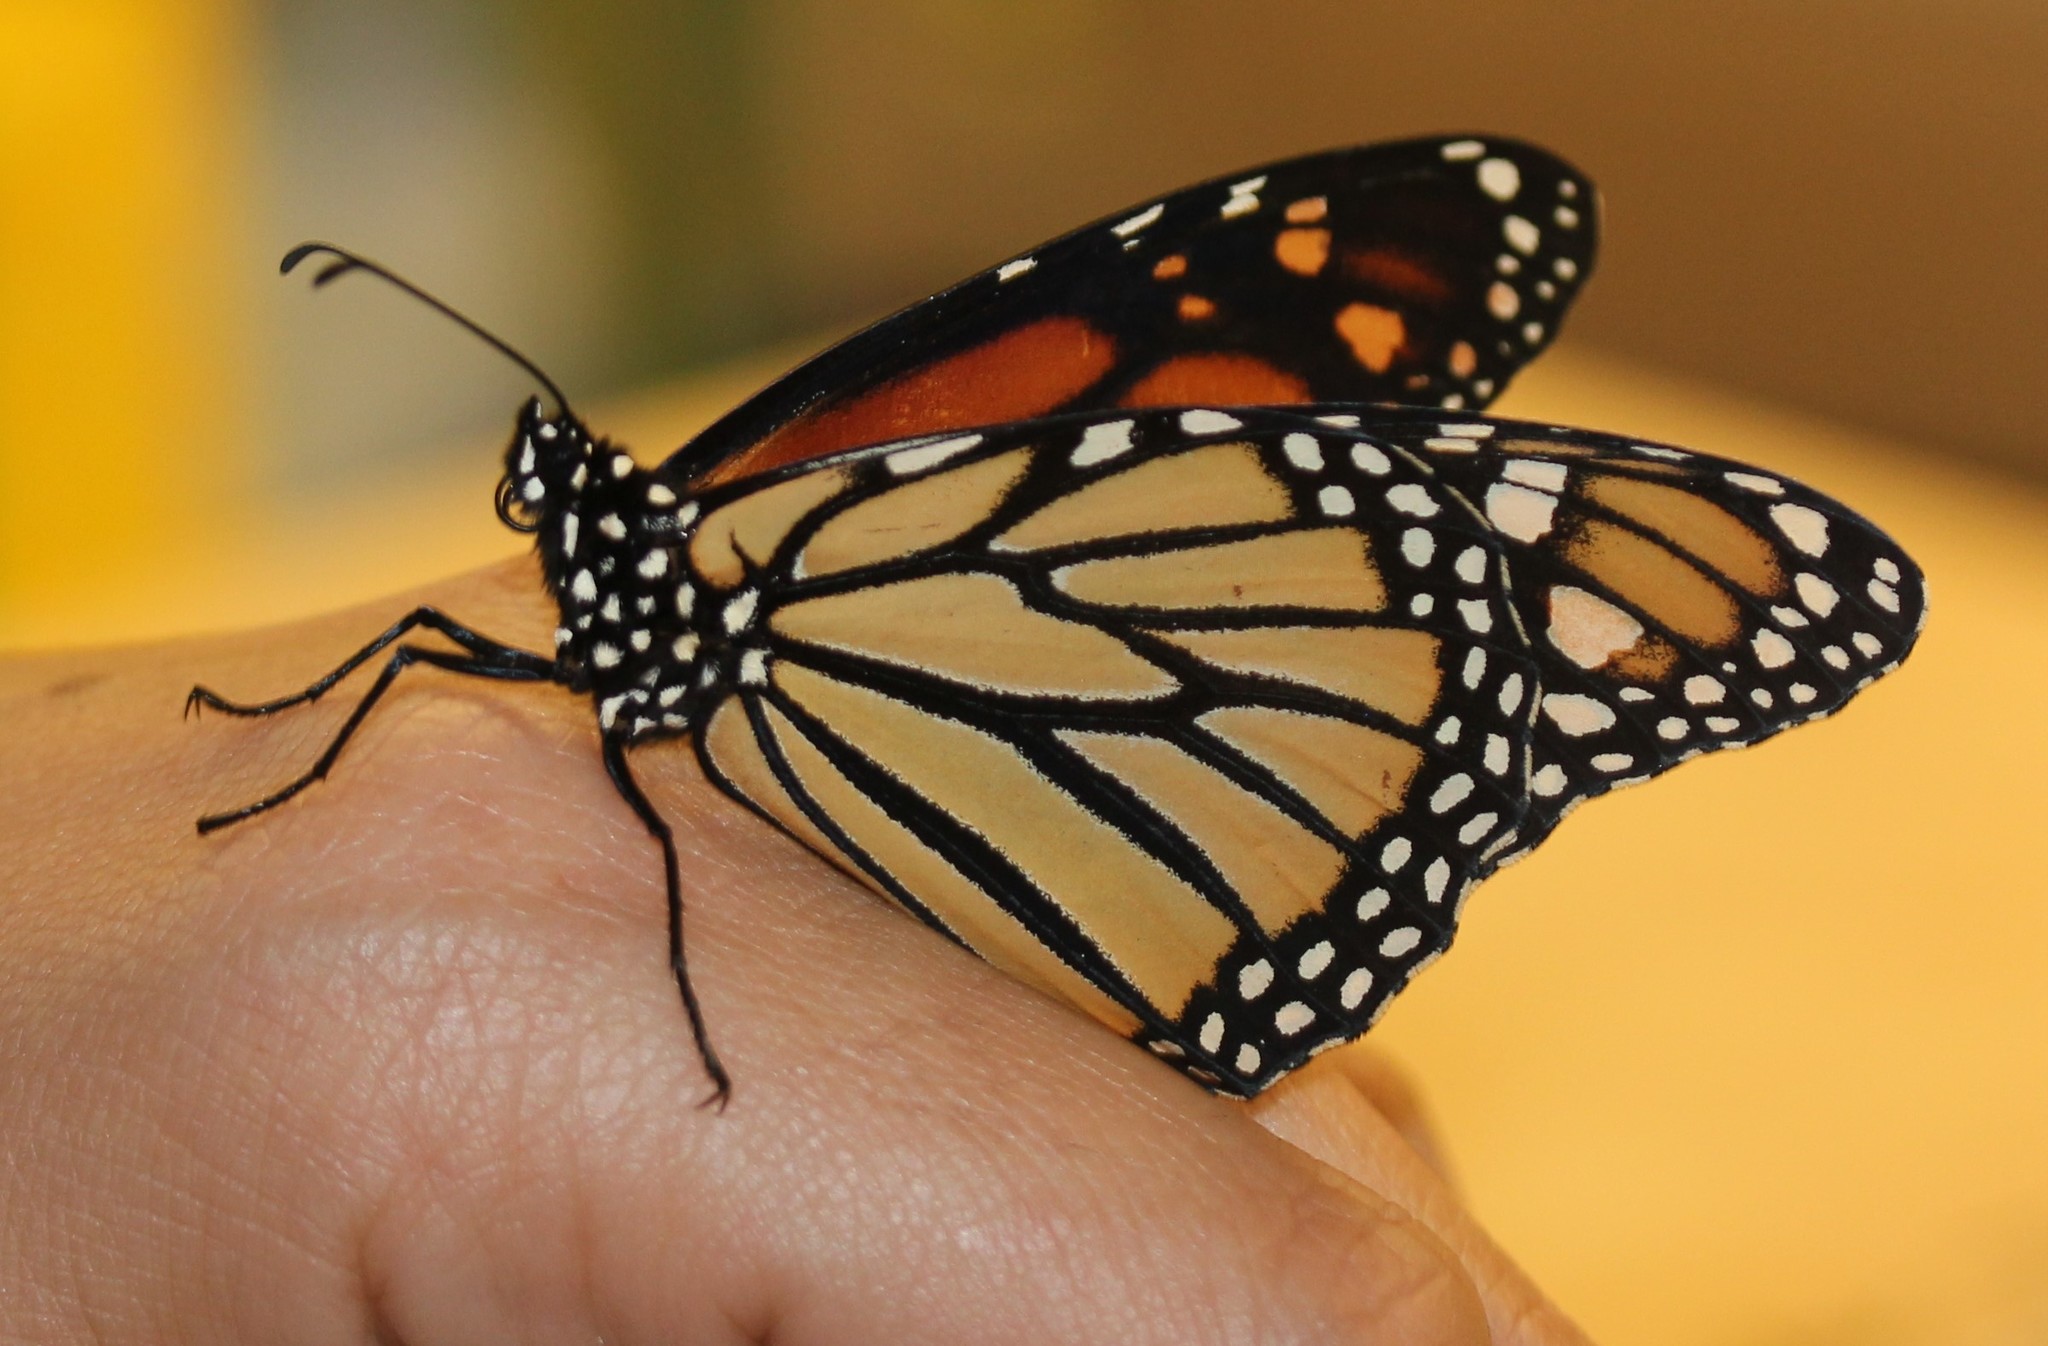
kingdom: Animalia
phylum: Arthropoda
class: Insecta
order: Lepidoptera
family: Nymphalidae
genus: Danaus
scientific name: Danaus plexippus
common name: Monarch
